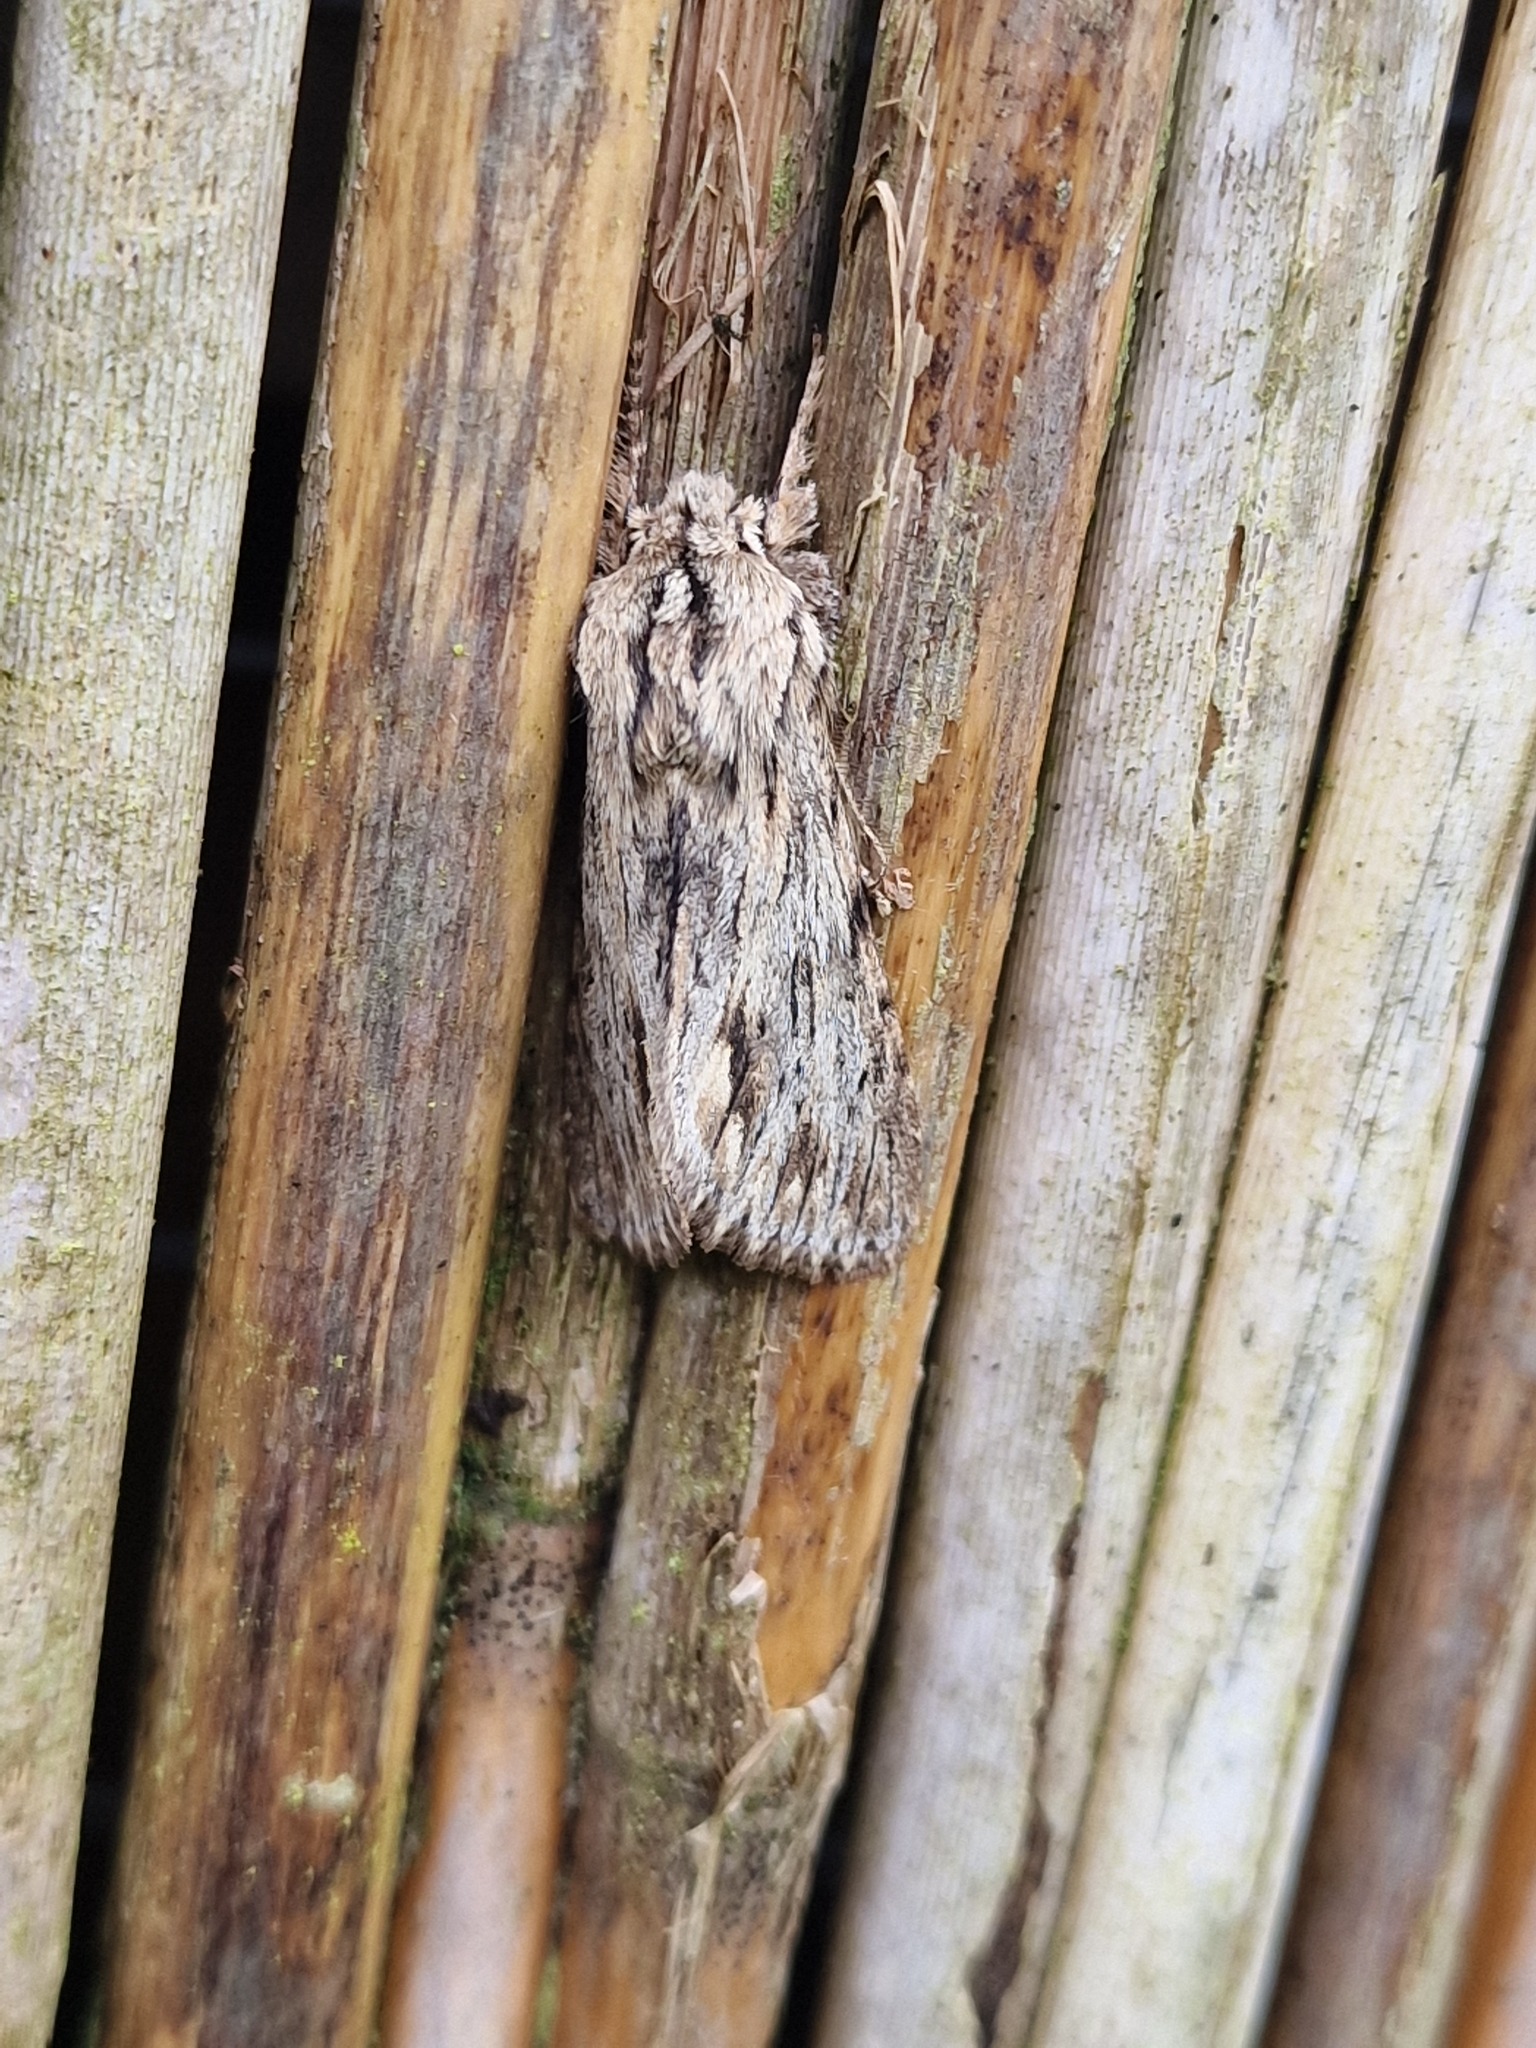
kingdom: Animalia
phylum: Arthropoda
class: Insecta
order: Lepidoptera
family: Noctuidae
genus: Asteroscopus
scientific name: Asteroscopus sphinx
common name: The sprawler
